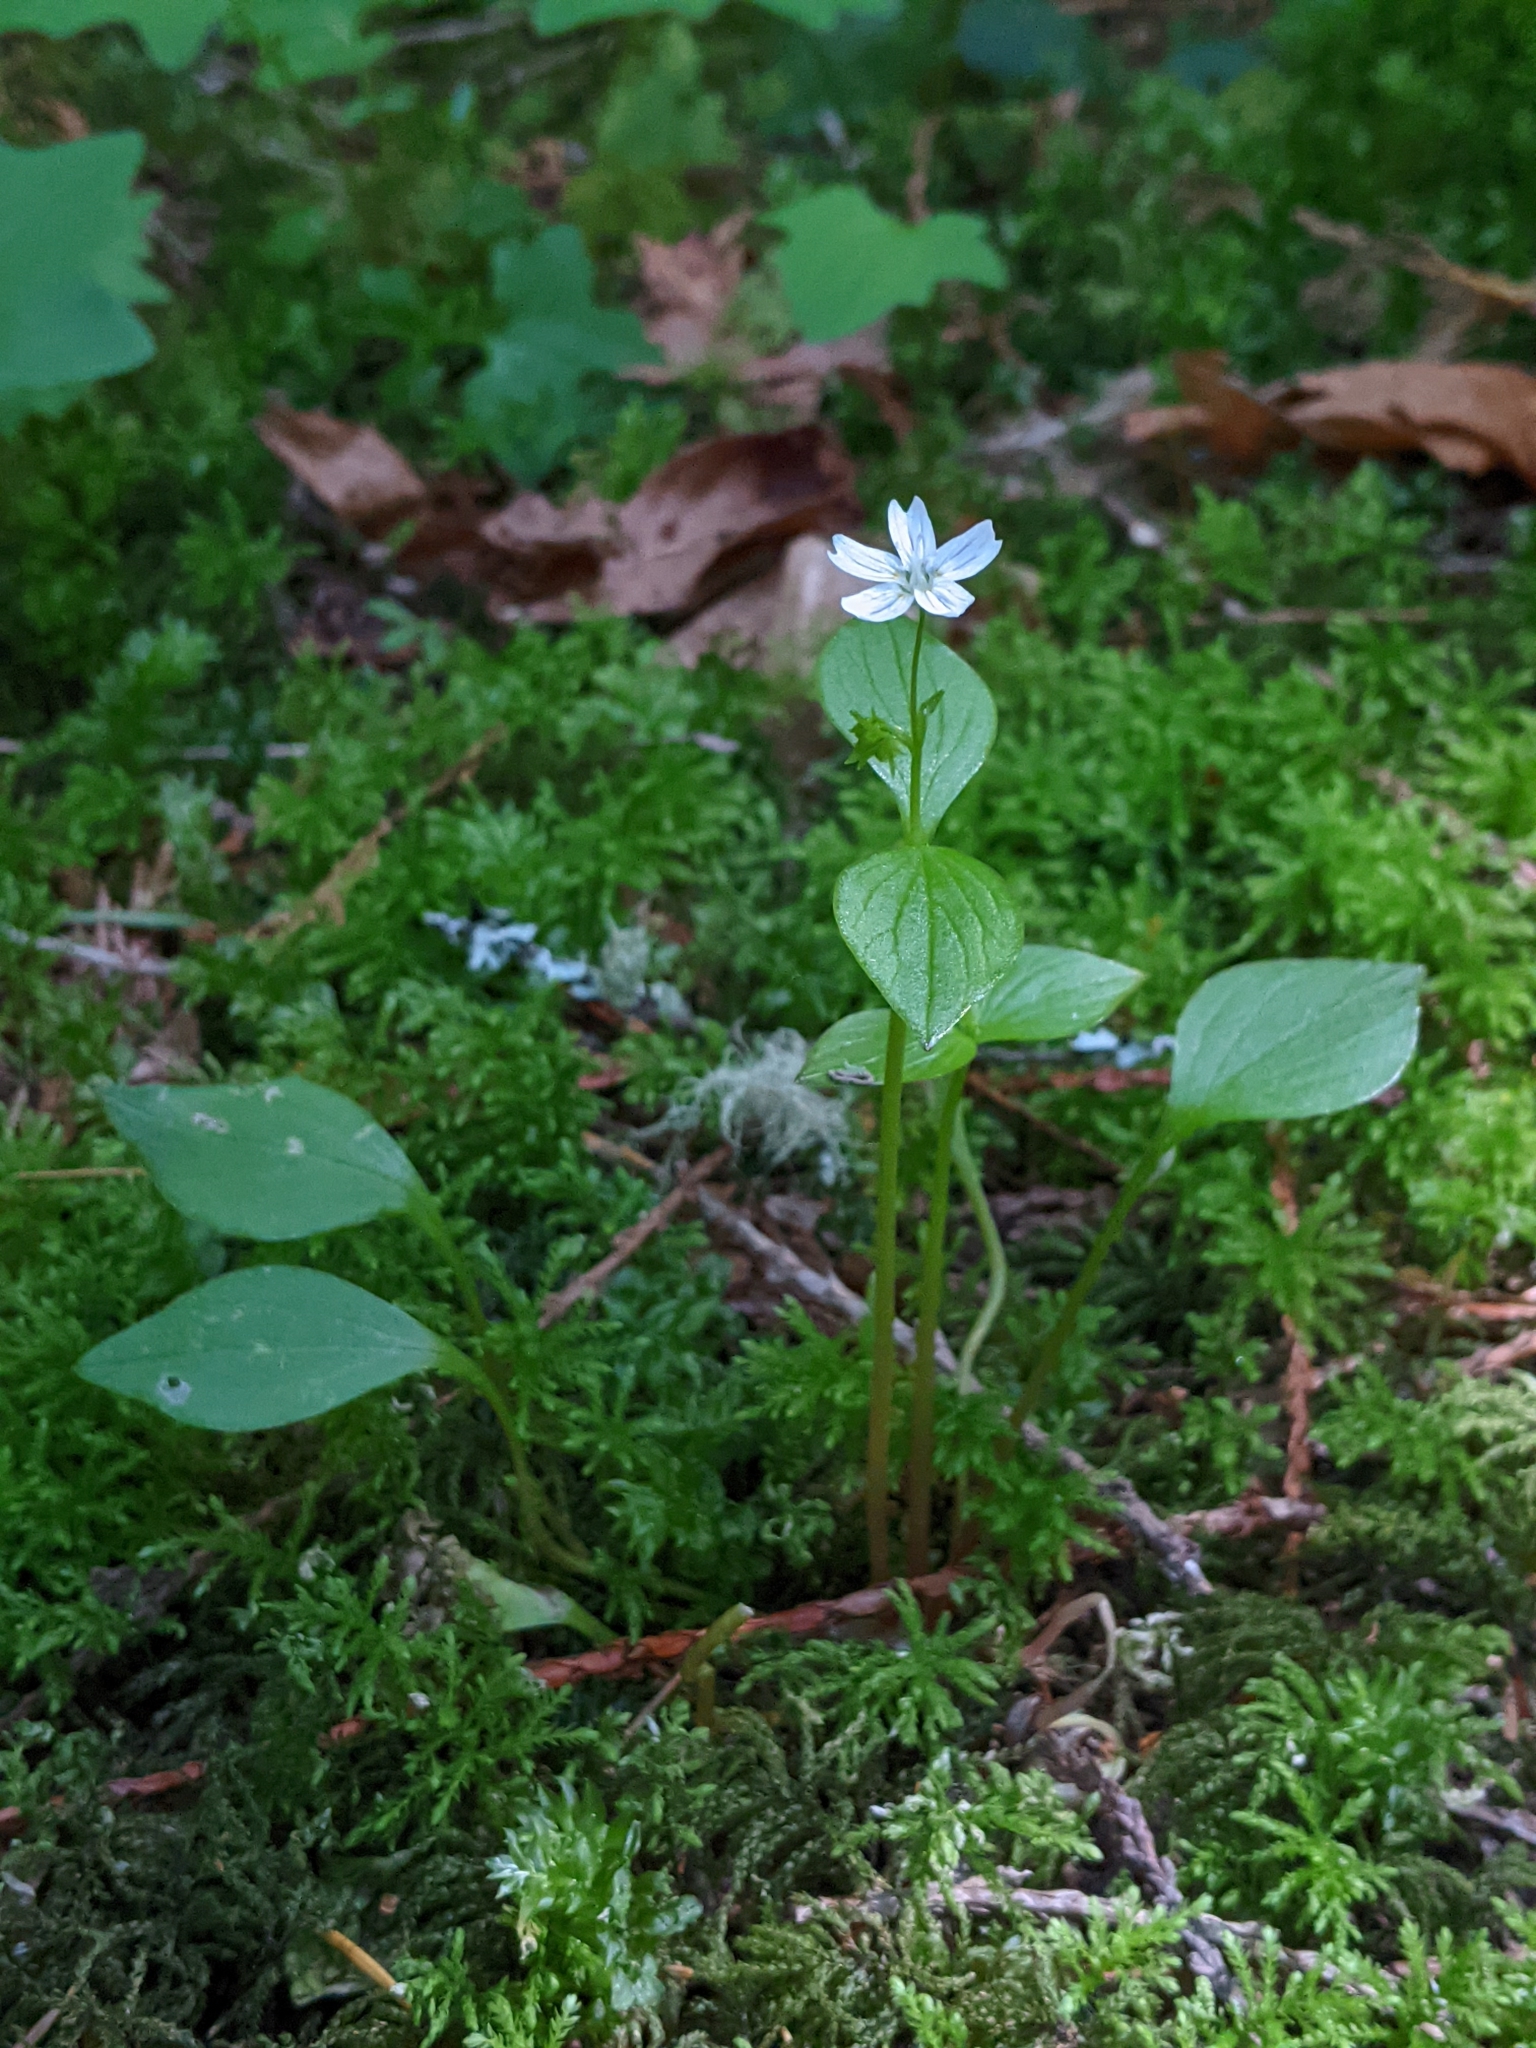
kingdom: Plantae
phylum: Tracheophyta
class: Magnoliopsida
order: Caryophyllales
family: Montiaceae
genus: Claytonia
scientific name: Claytonia sibirica
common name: Pink purslane
